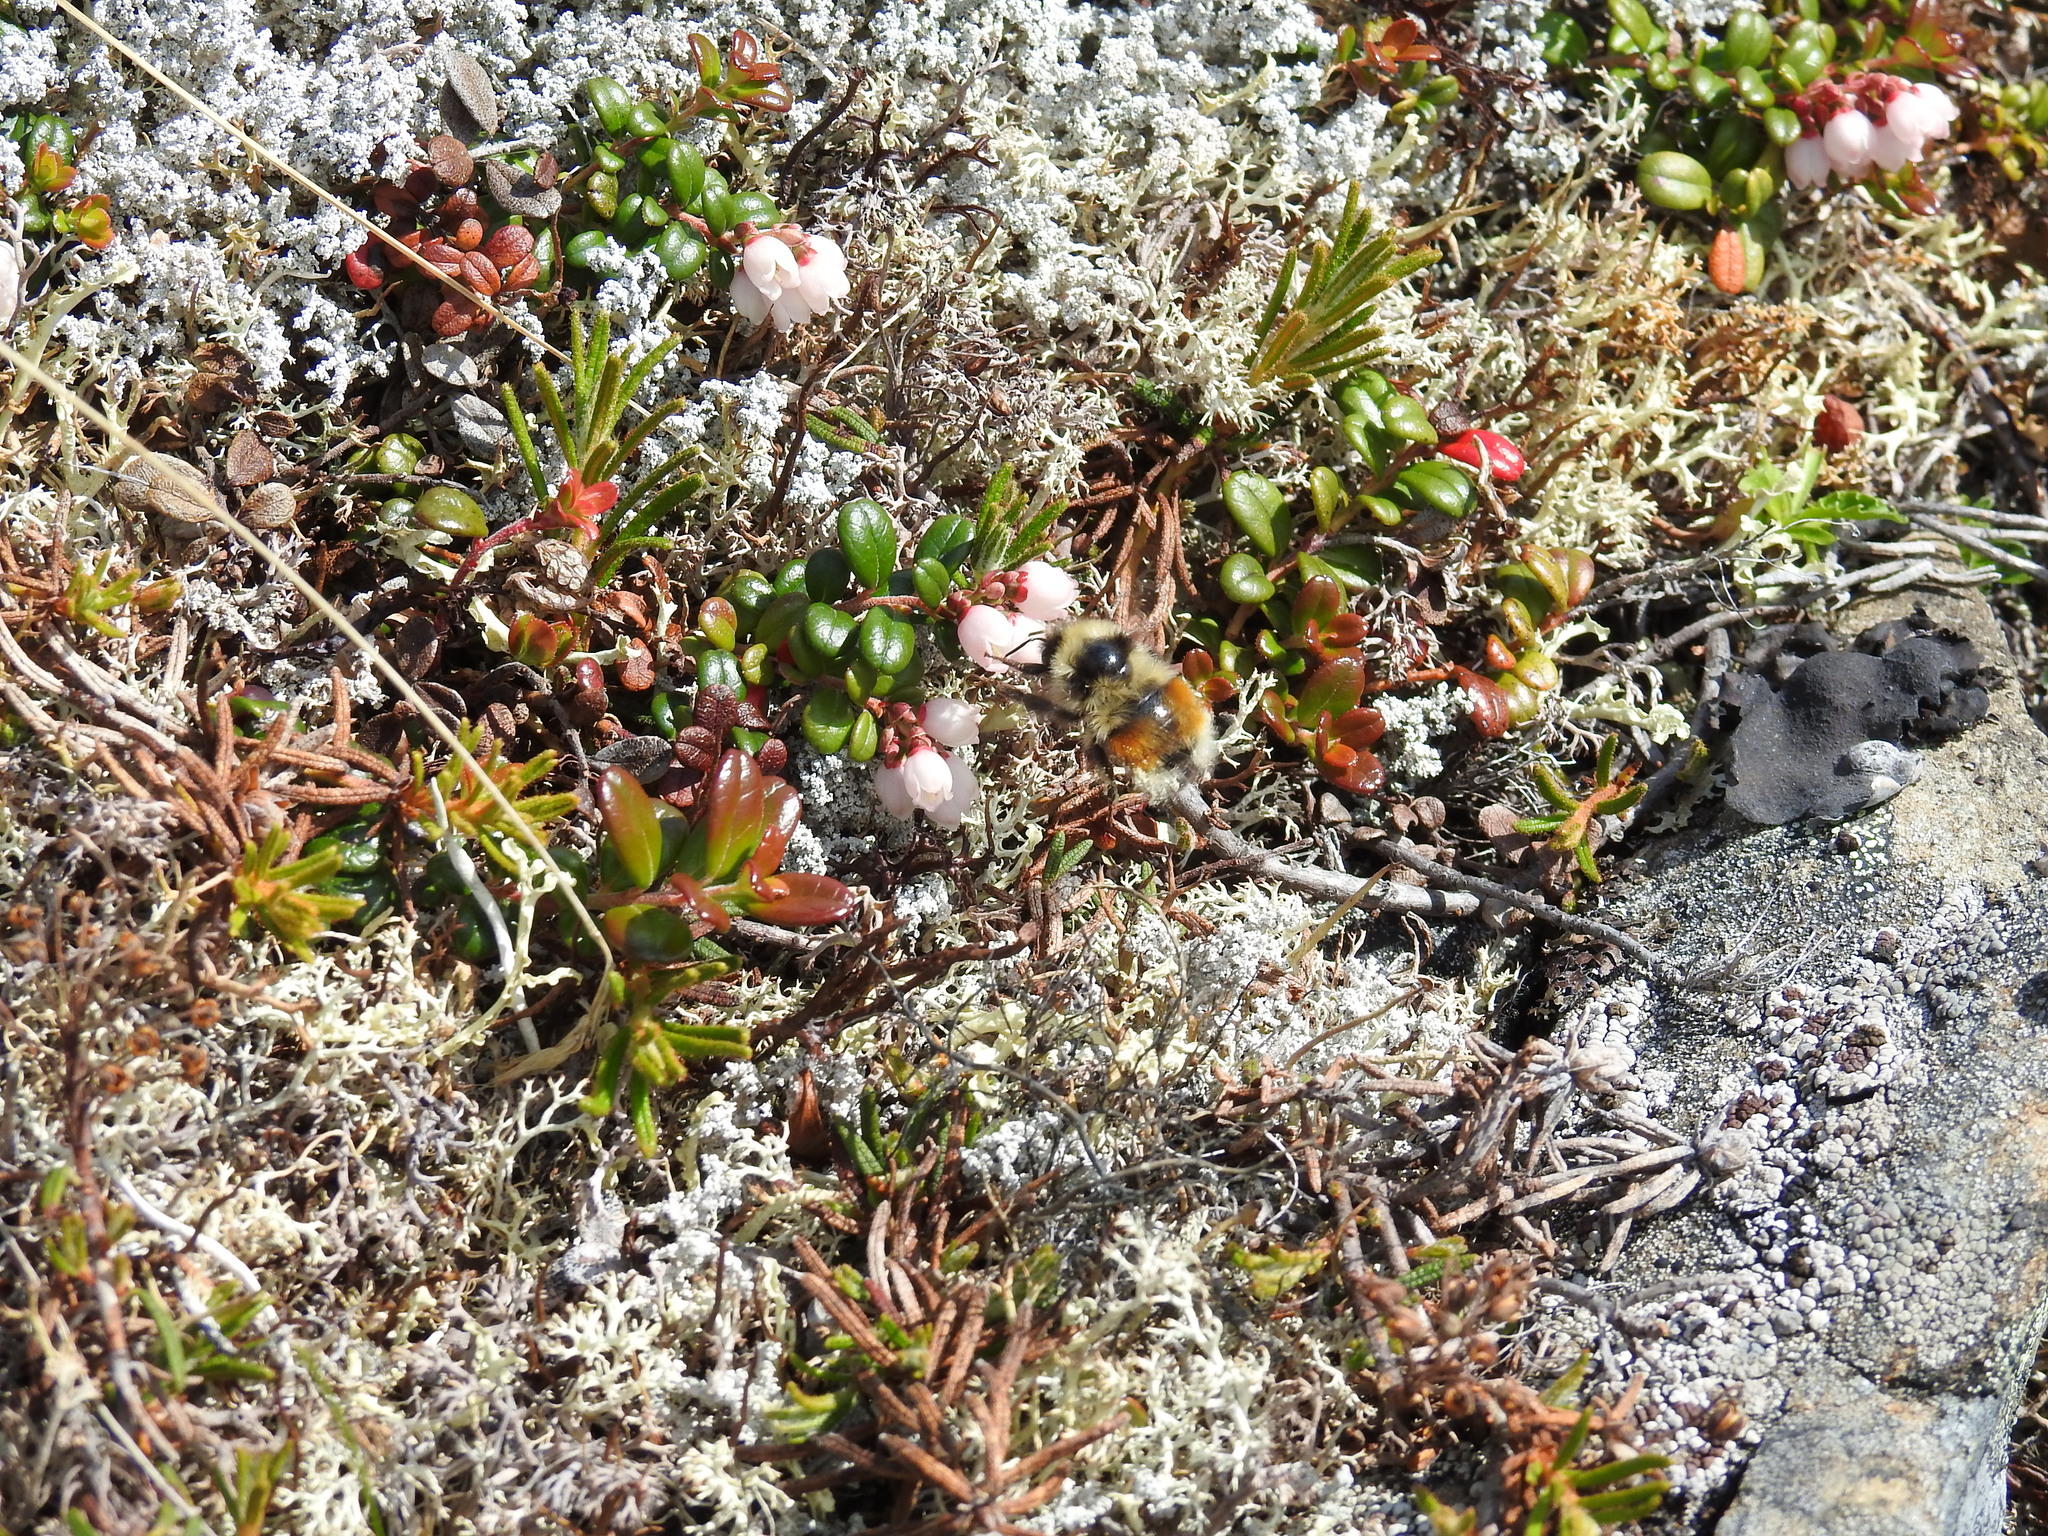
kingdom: Animalia
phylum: Arthropoda
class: Insecta
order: Hymenoptera
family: Apidae
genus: Bombus
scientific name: Bombus sylvicola
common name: Forest bumble bee
